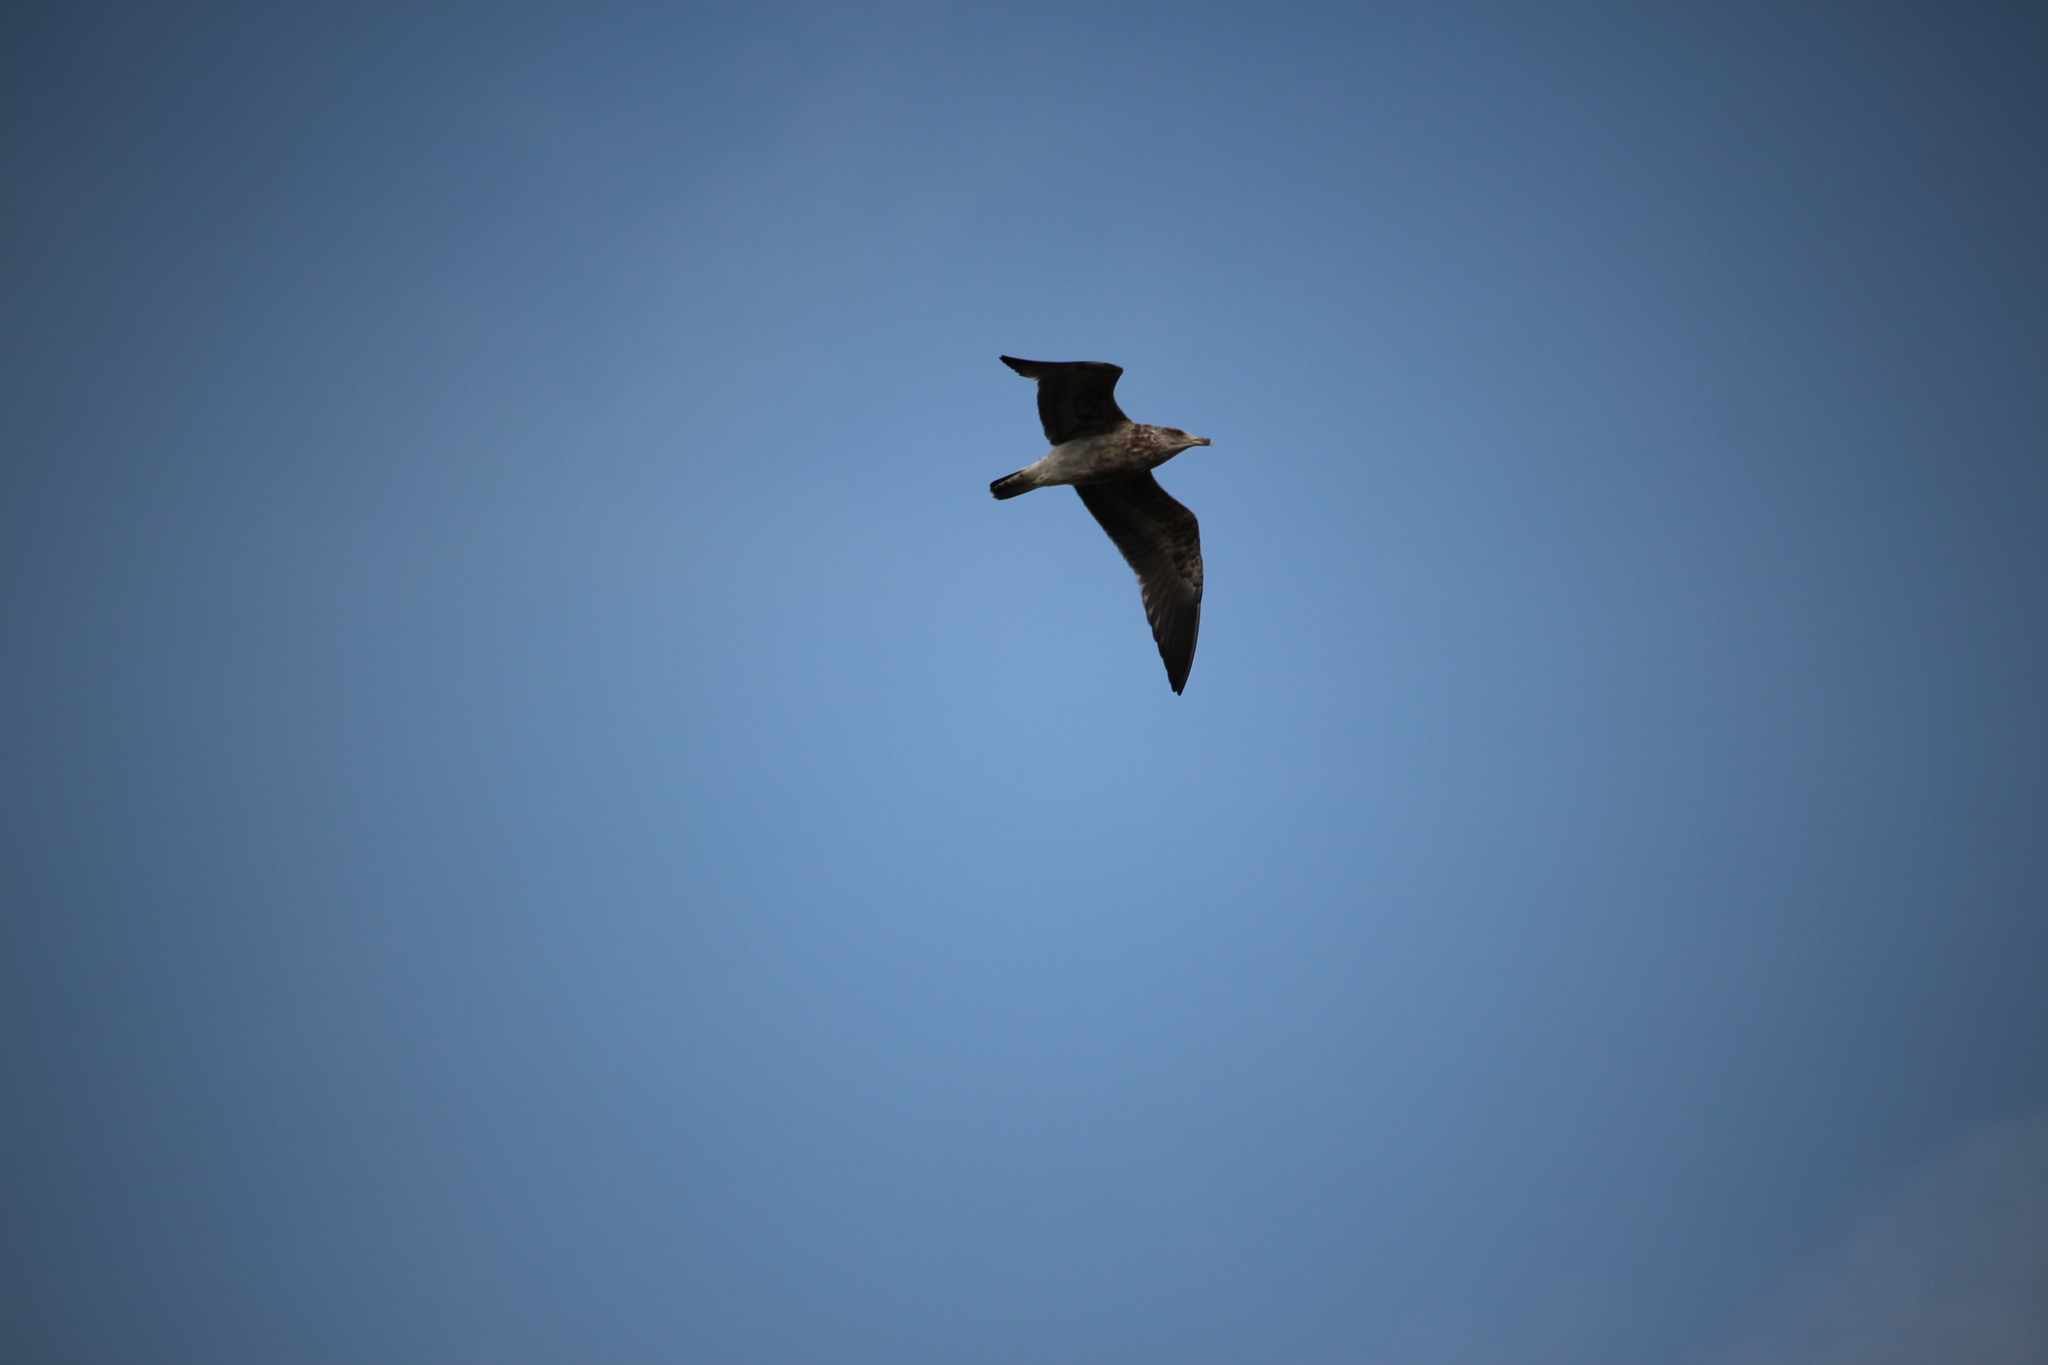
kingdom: Animalia
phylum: Chordata
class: Aves
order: Charadriiformes
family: Laridae
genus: Larus
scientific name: Larus dominicanus
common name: Kelp gull
